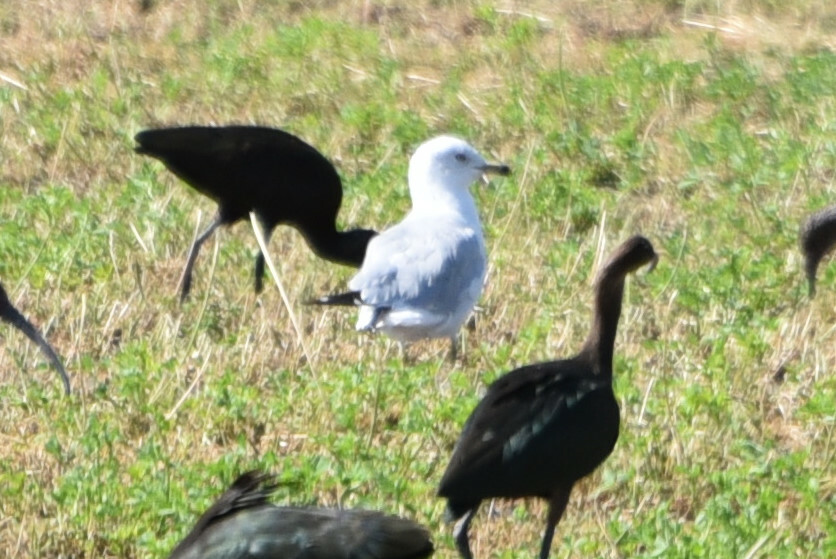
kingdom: Animalia
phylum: Chordata
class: Aves
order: Charadriiformes
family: Laridae
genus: Larus
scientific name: Larus delawarensis
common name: Ring-billed gull
